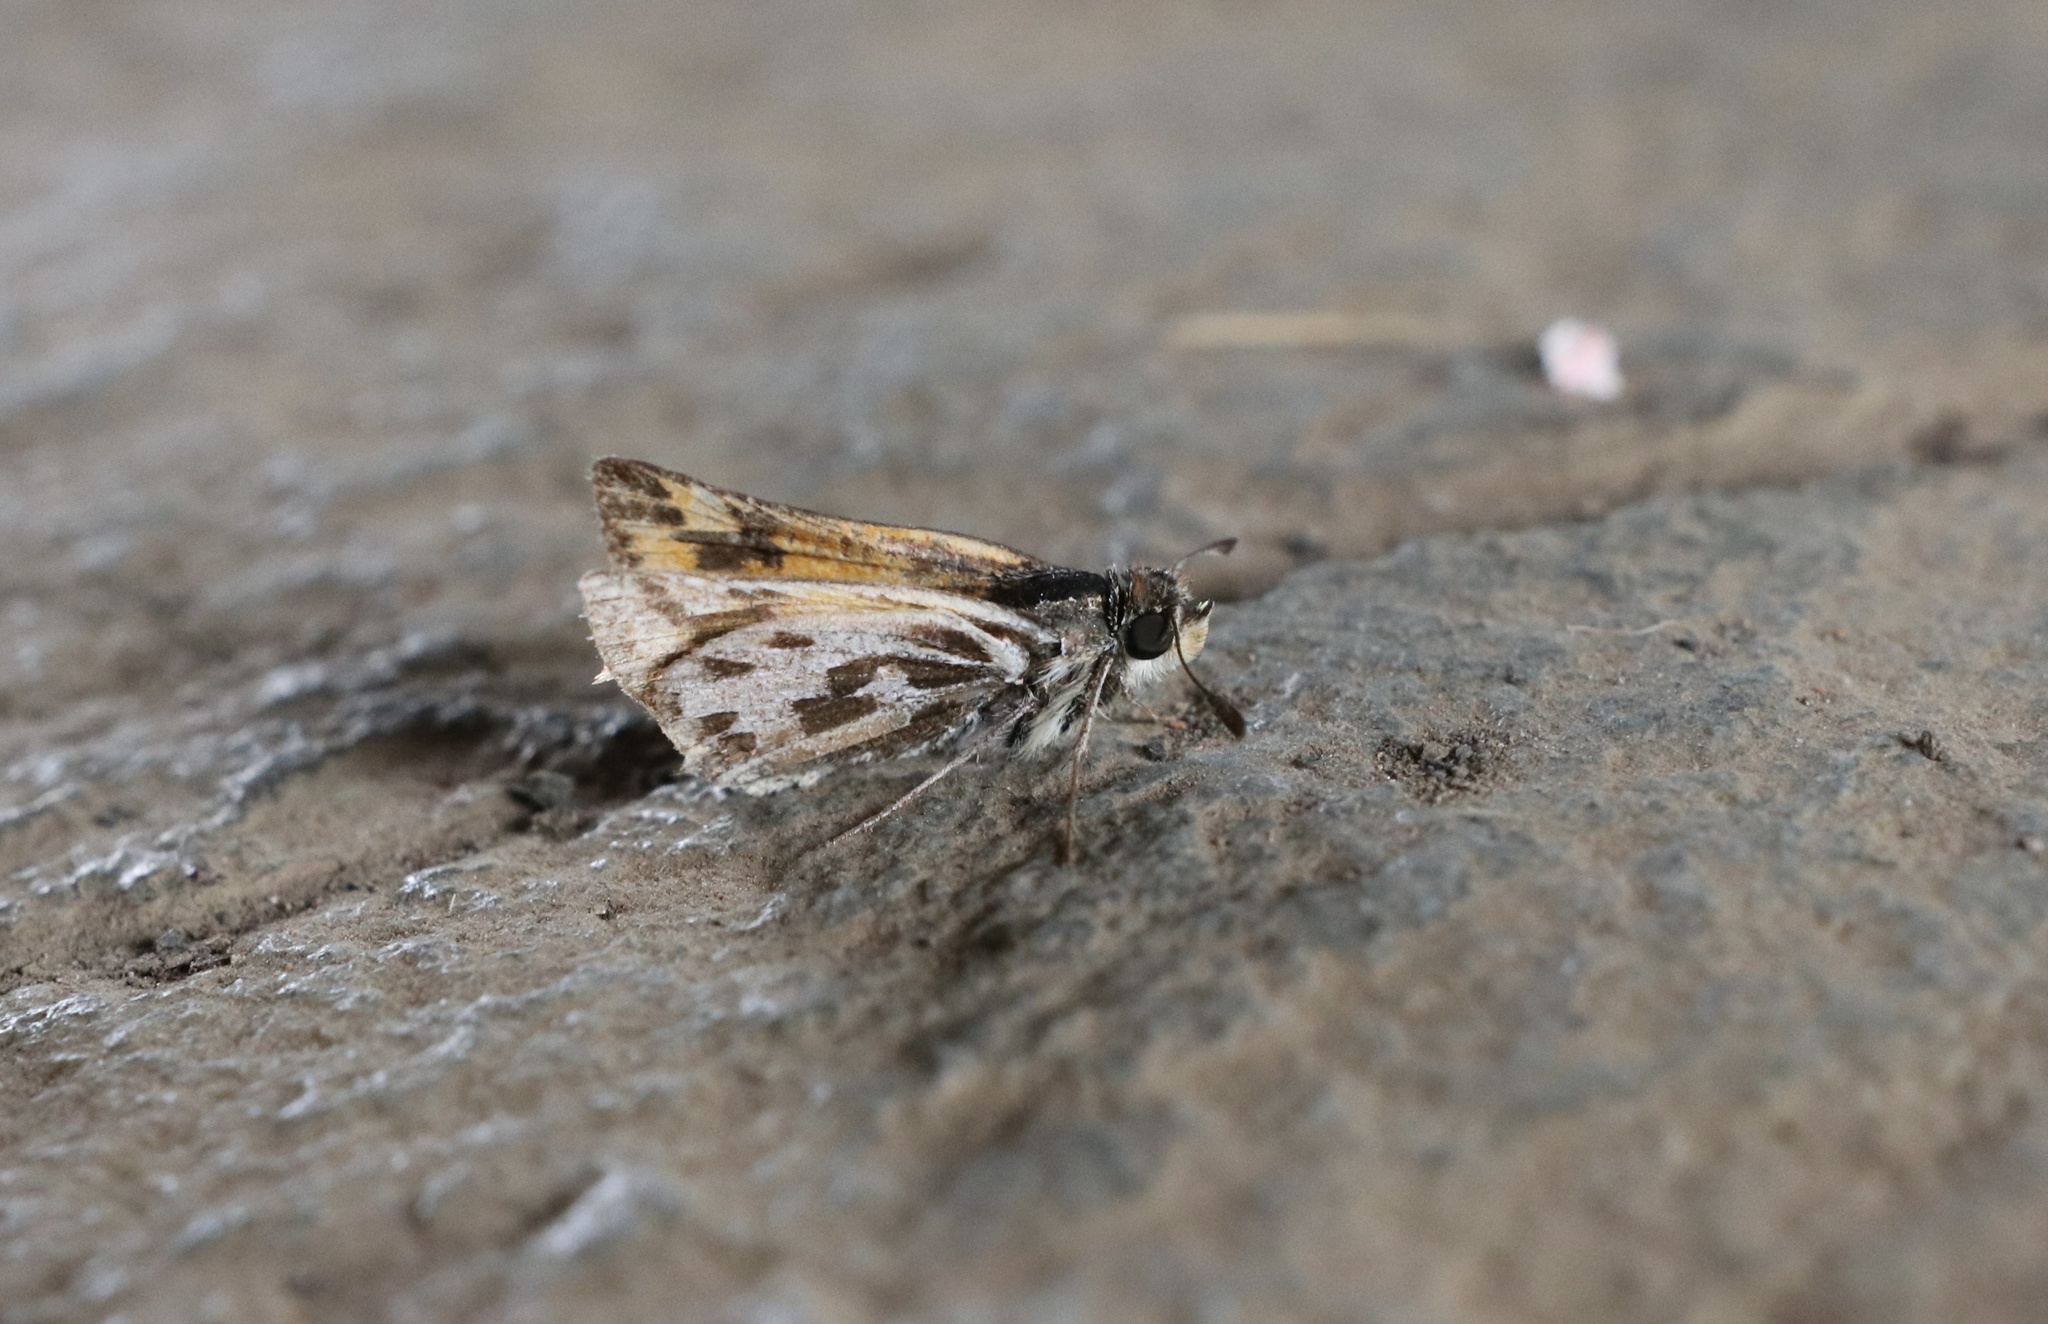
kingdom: Animalia
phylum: Arthropoda
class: Insecta
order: Lepidoptera
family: Hesperiidae
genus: Hylephila
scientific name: Hylephila fasciolata
